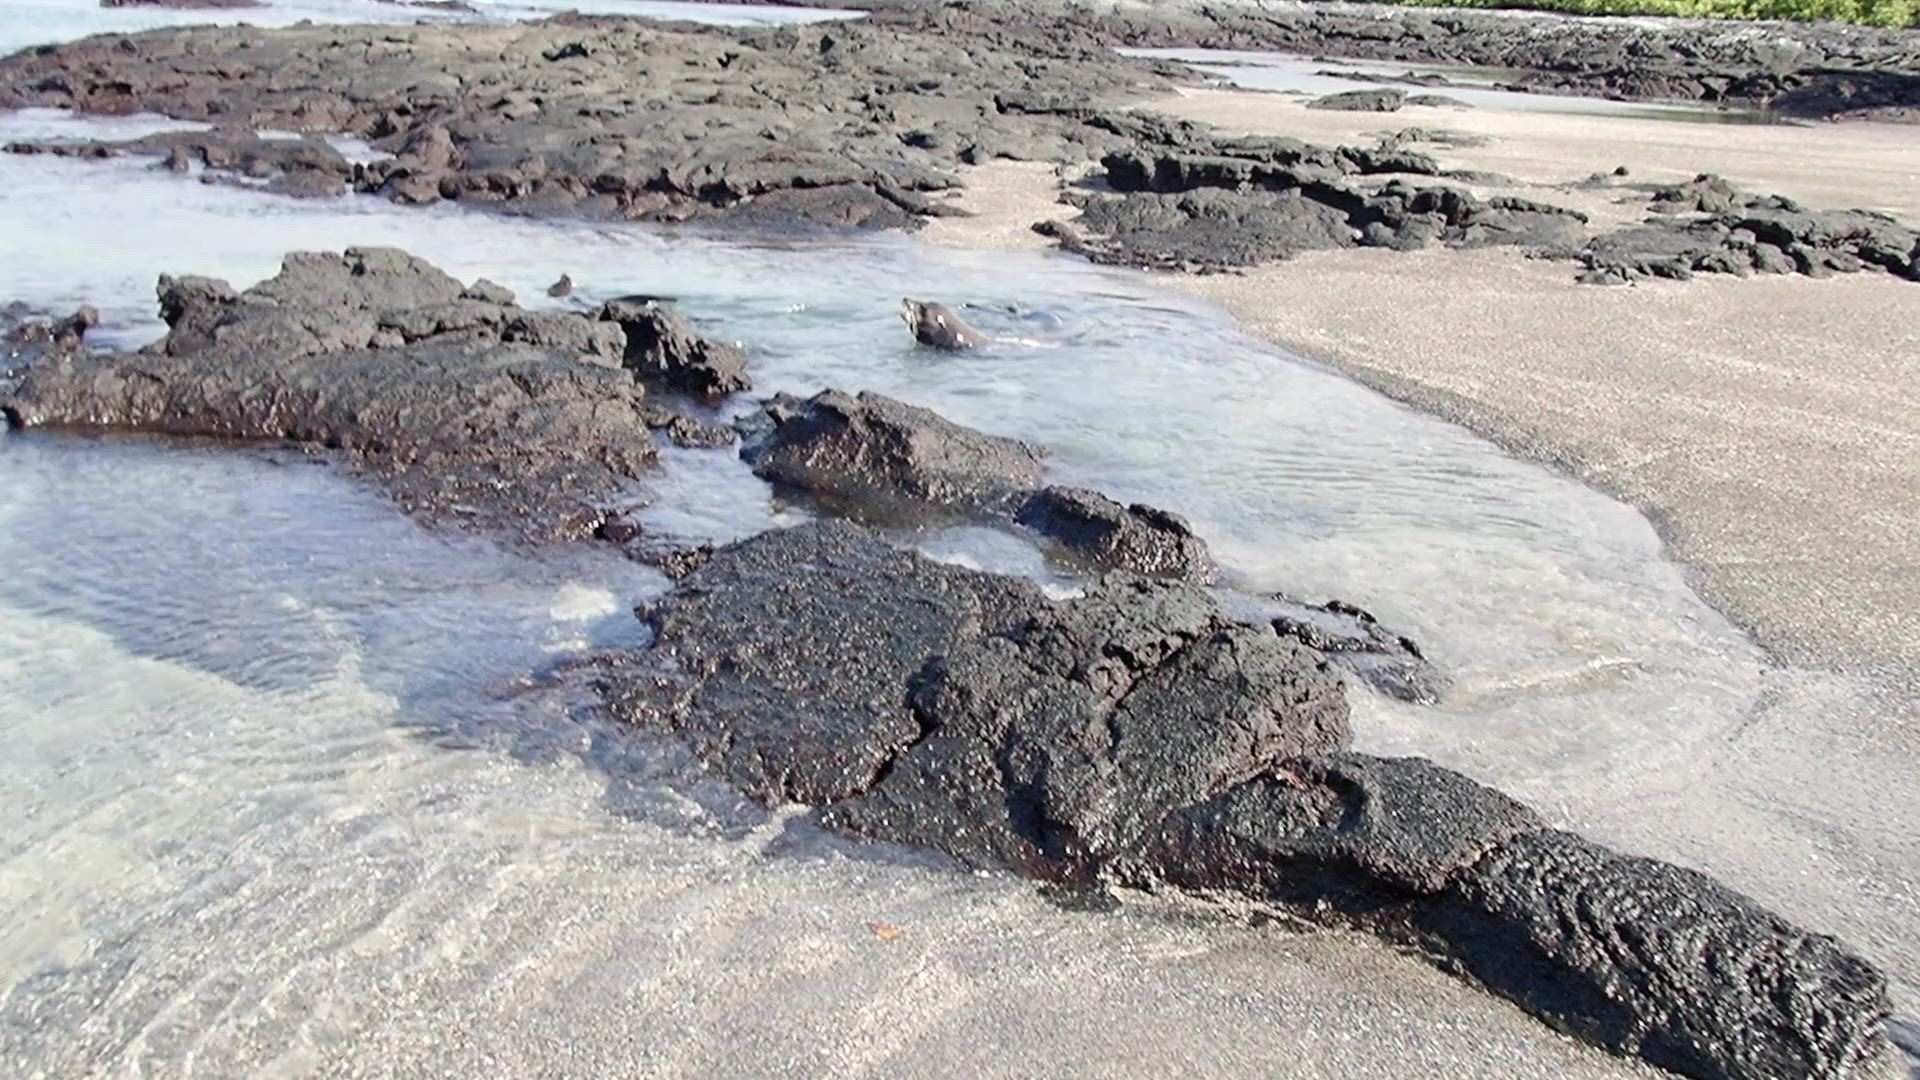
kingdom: Animalia
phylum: Chordata
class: Mammalia
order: Carnivora
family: Otariidae
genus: Zalophus
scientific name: Zalophus wollebaeki
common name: Galapagos sea lion
